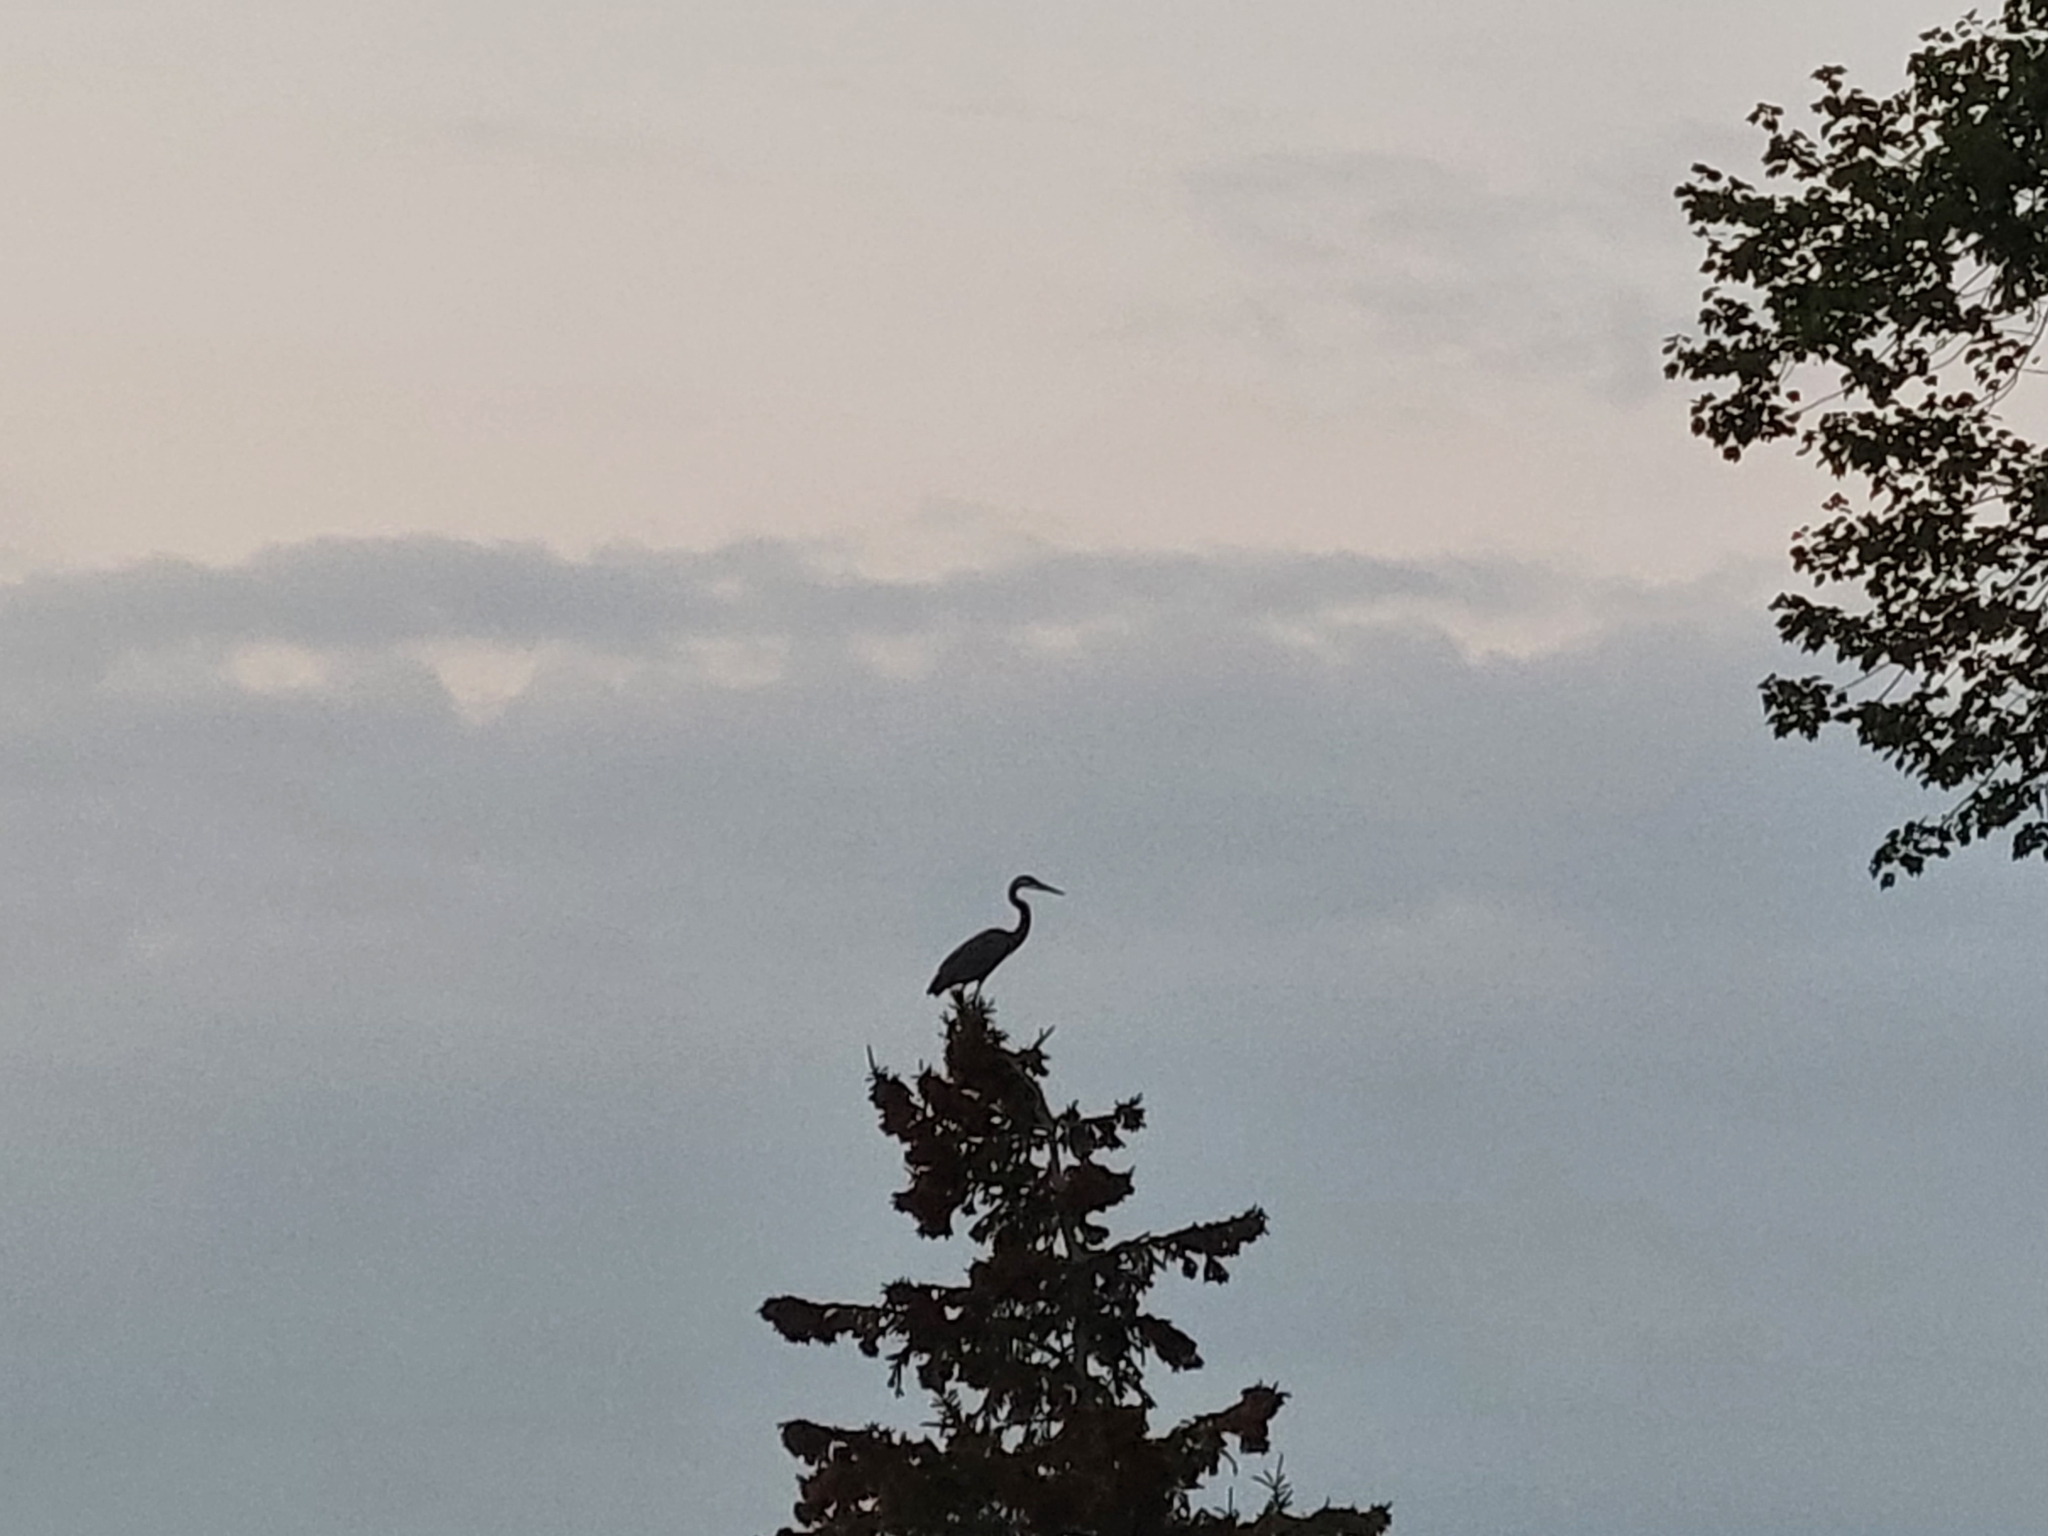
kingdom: Animalia
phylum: Chordata
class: Aves
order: Pelecaniformes
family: Ardeidae
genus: Ardea
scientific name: Ardea herodias
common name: Great blue heron
